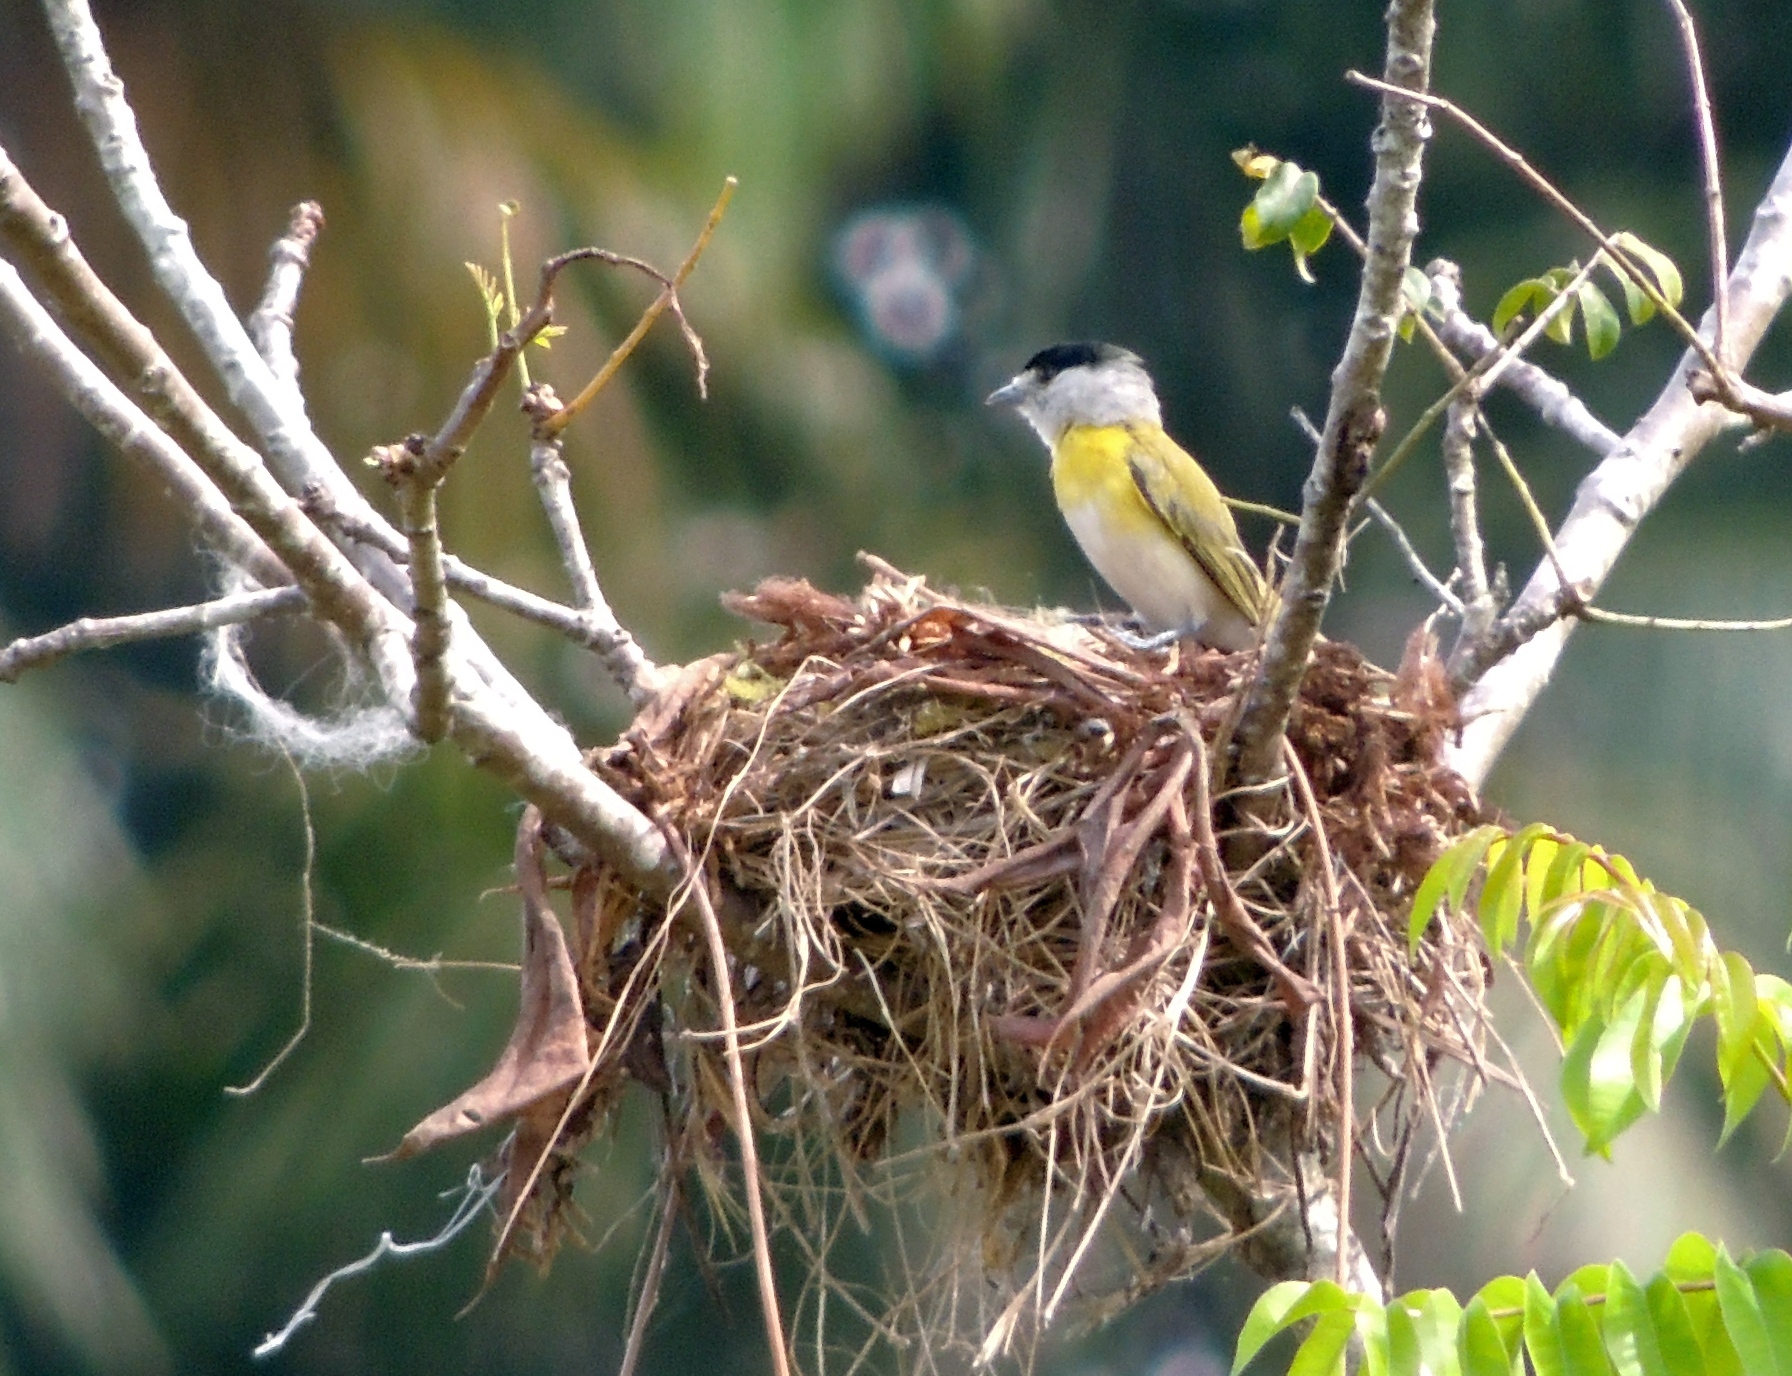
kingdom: Animalia
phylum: Chordata
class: Aves
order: Passeriformes
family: Cotingidae
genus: Pachyramphus
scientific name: Pachyramphus viridis
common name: Green-backed becard
